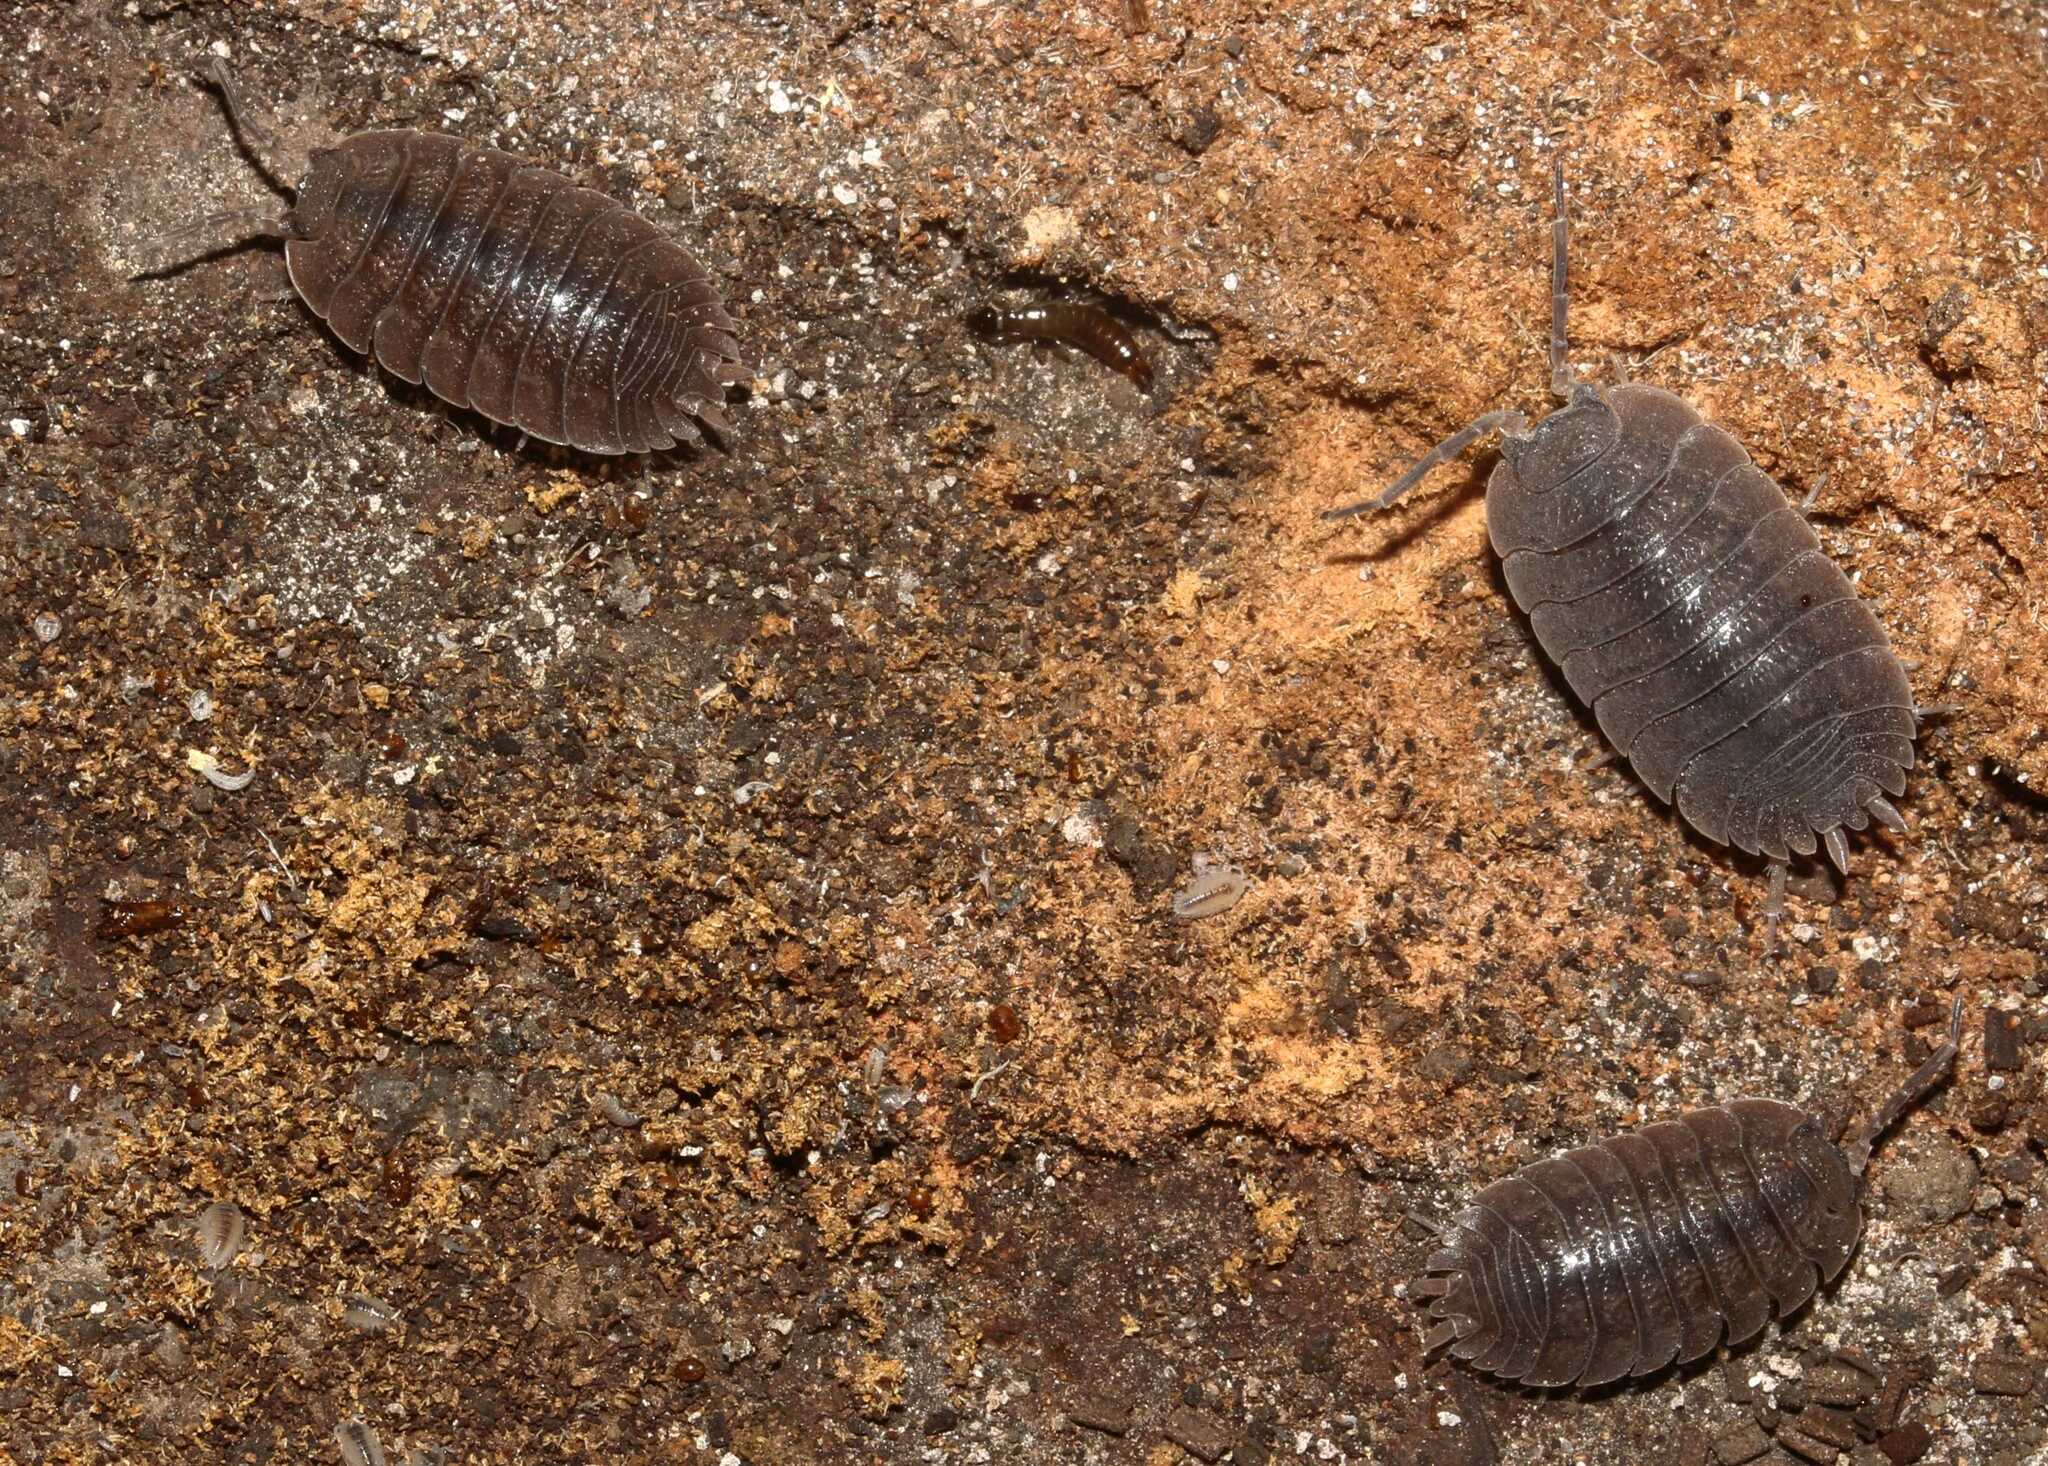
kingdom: Animalia
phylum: Arthropoda
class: Malacostraca
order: Isopoda
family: Porcellionidae
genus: Porcellio
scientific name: Porcellio dilatatus
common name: Isopod
